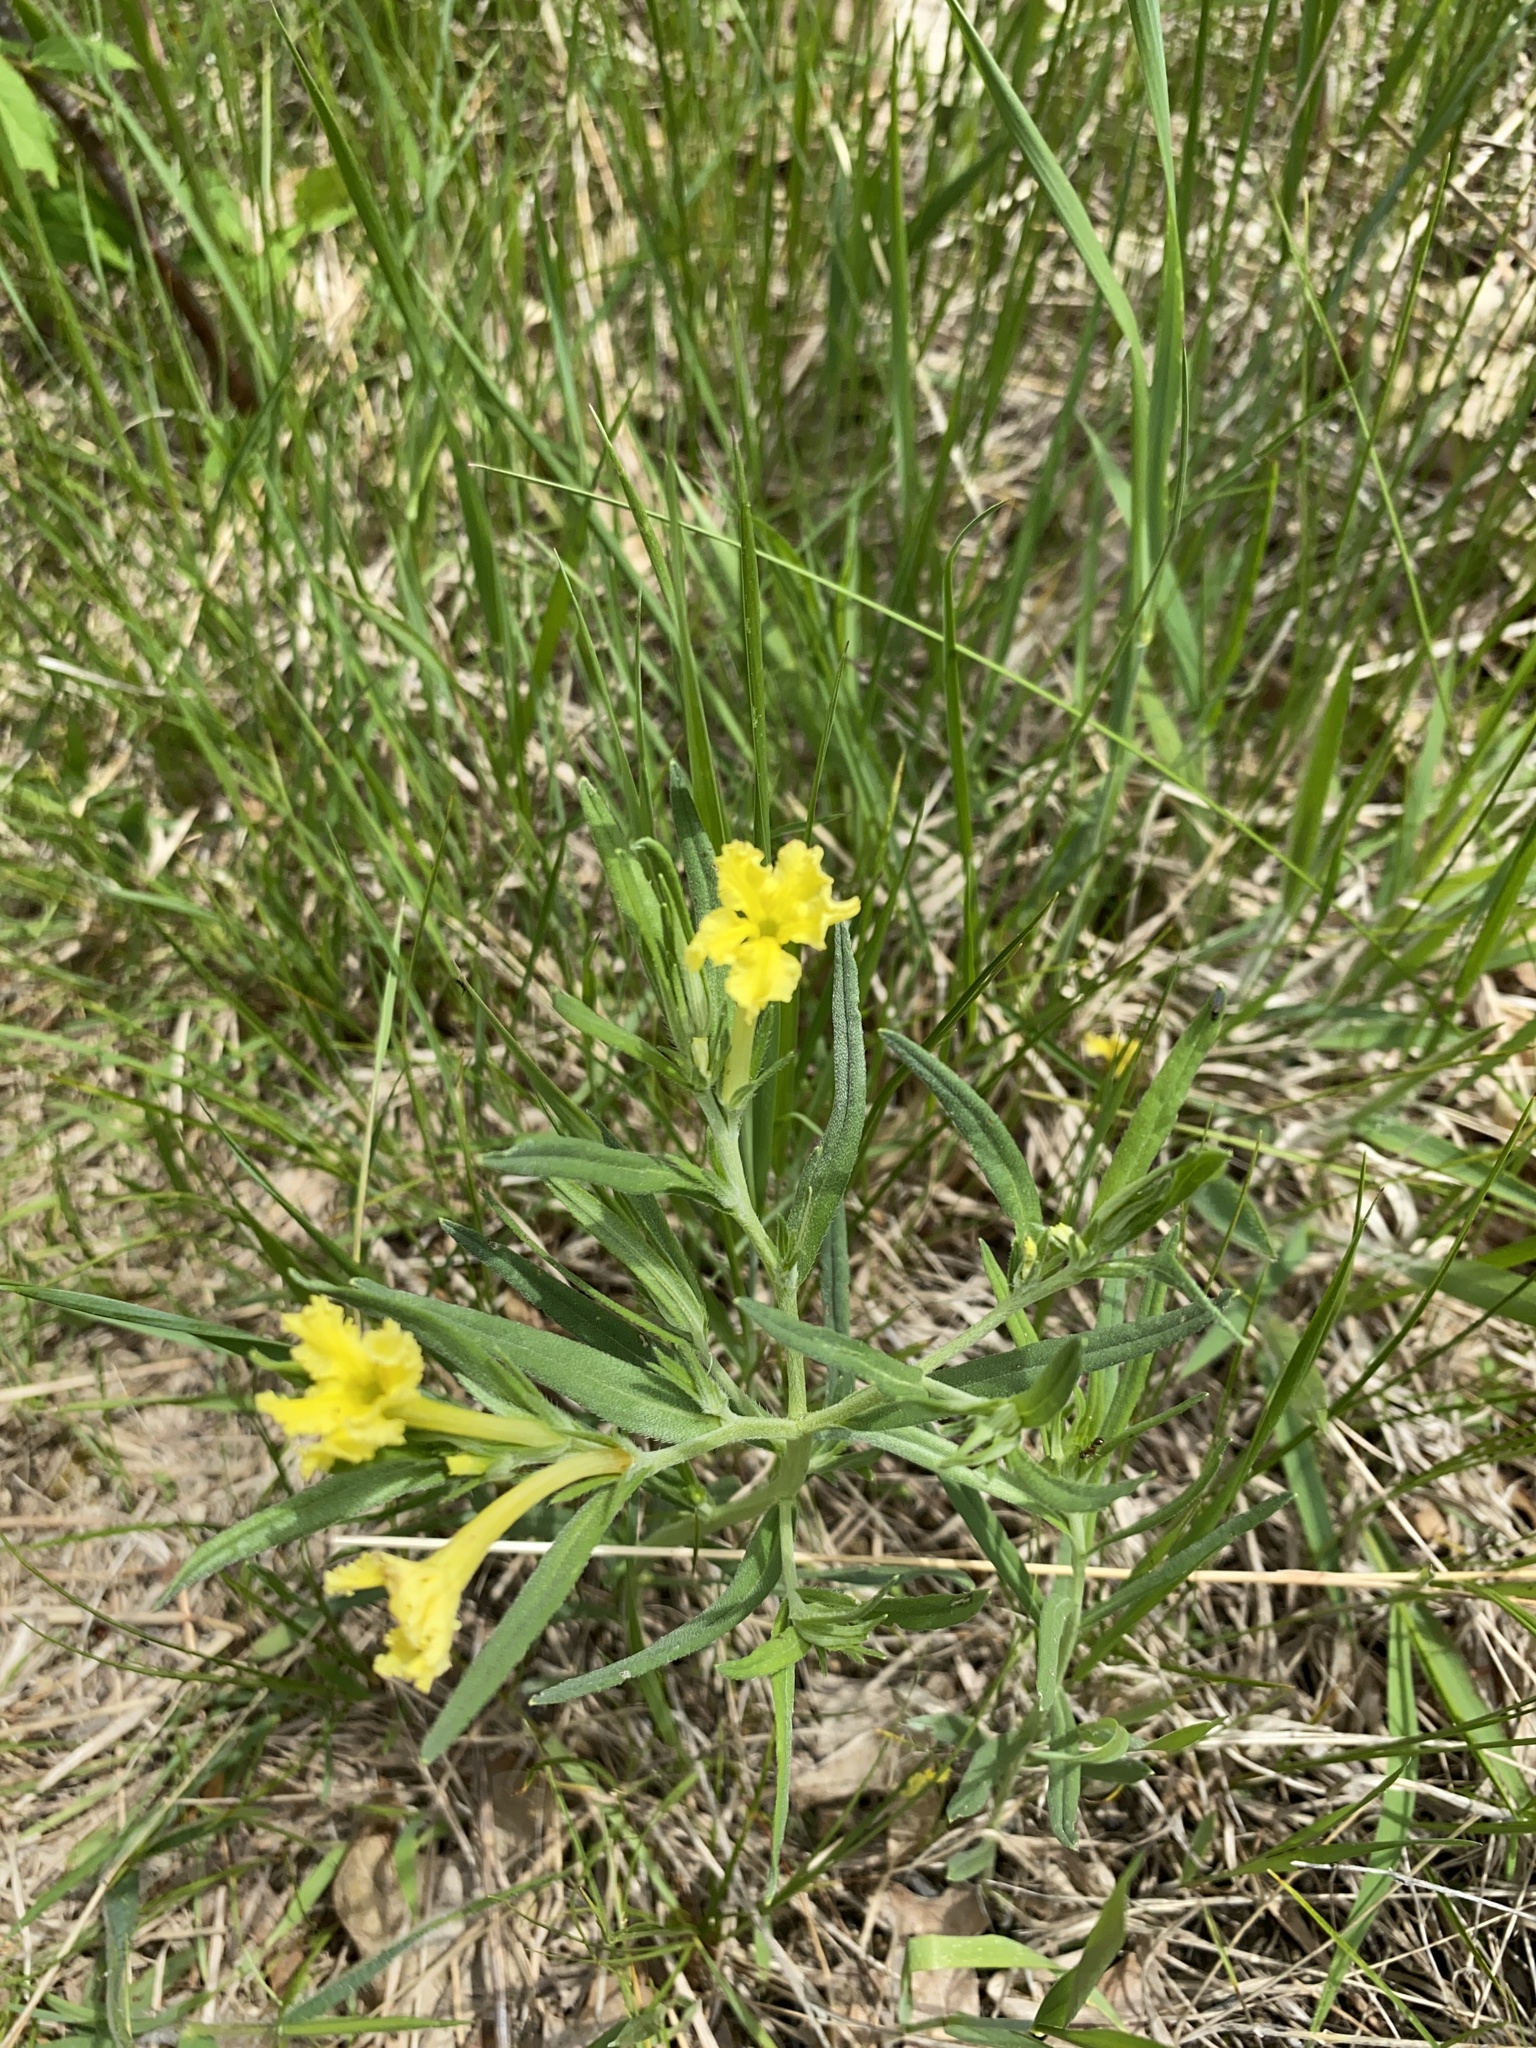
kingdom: Plantae
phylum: Tracheophyta
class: Magnoliopsida
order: Boraginales
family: Boraginaceae
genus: Lithospermum
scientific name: Lithospermum incisum
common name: Fringed gromwell
